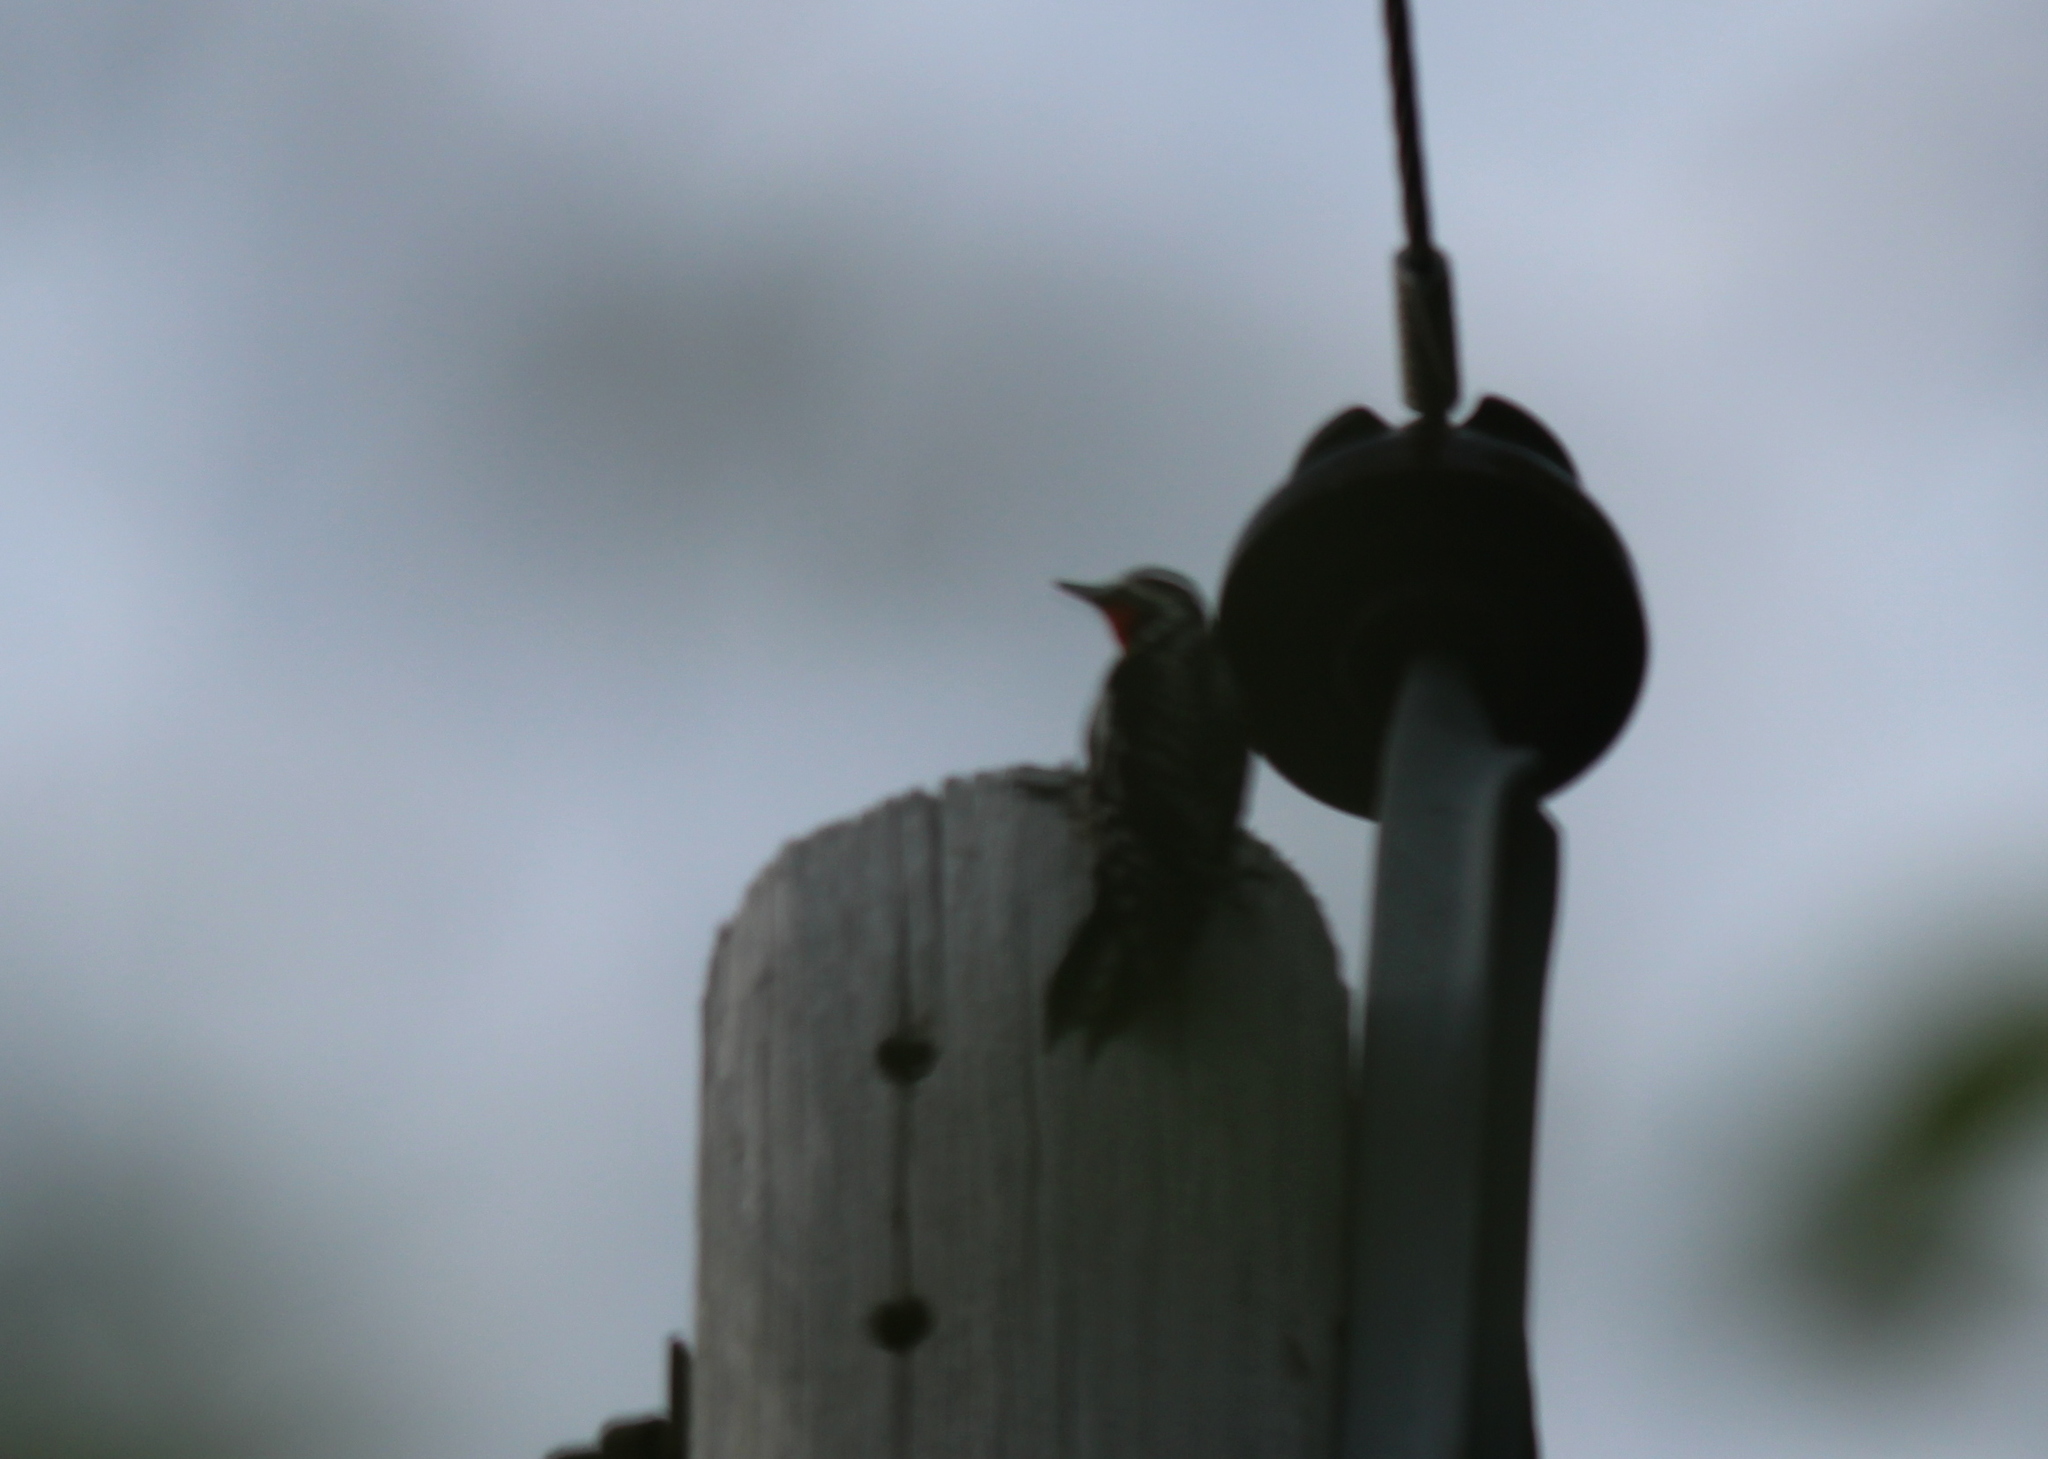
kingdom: Animalia
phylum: Chordata
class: Aves
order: Piciformes
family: Picidae
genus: Sphyrapicus
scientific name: Sphyrapicus varius
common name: Yellow-bellied sapsucker
